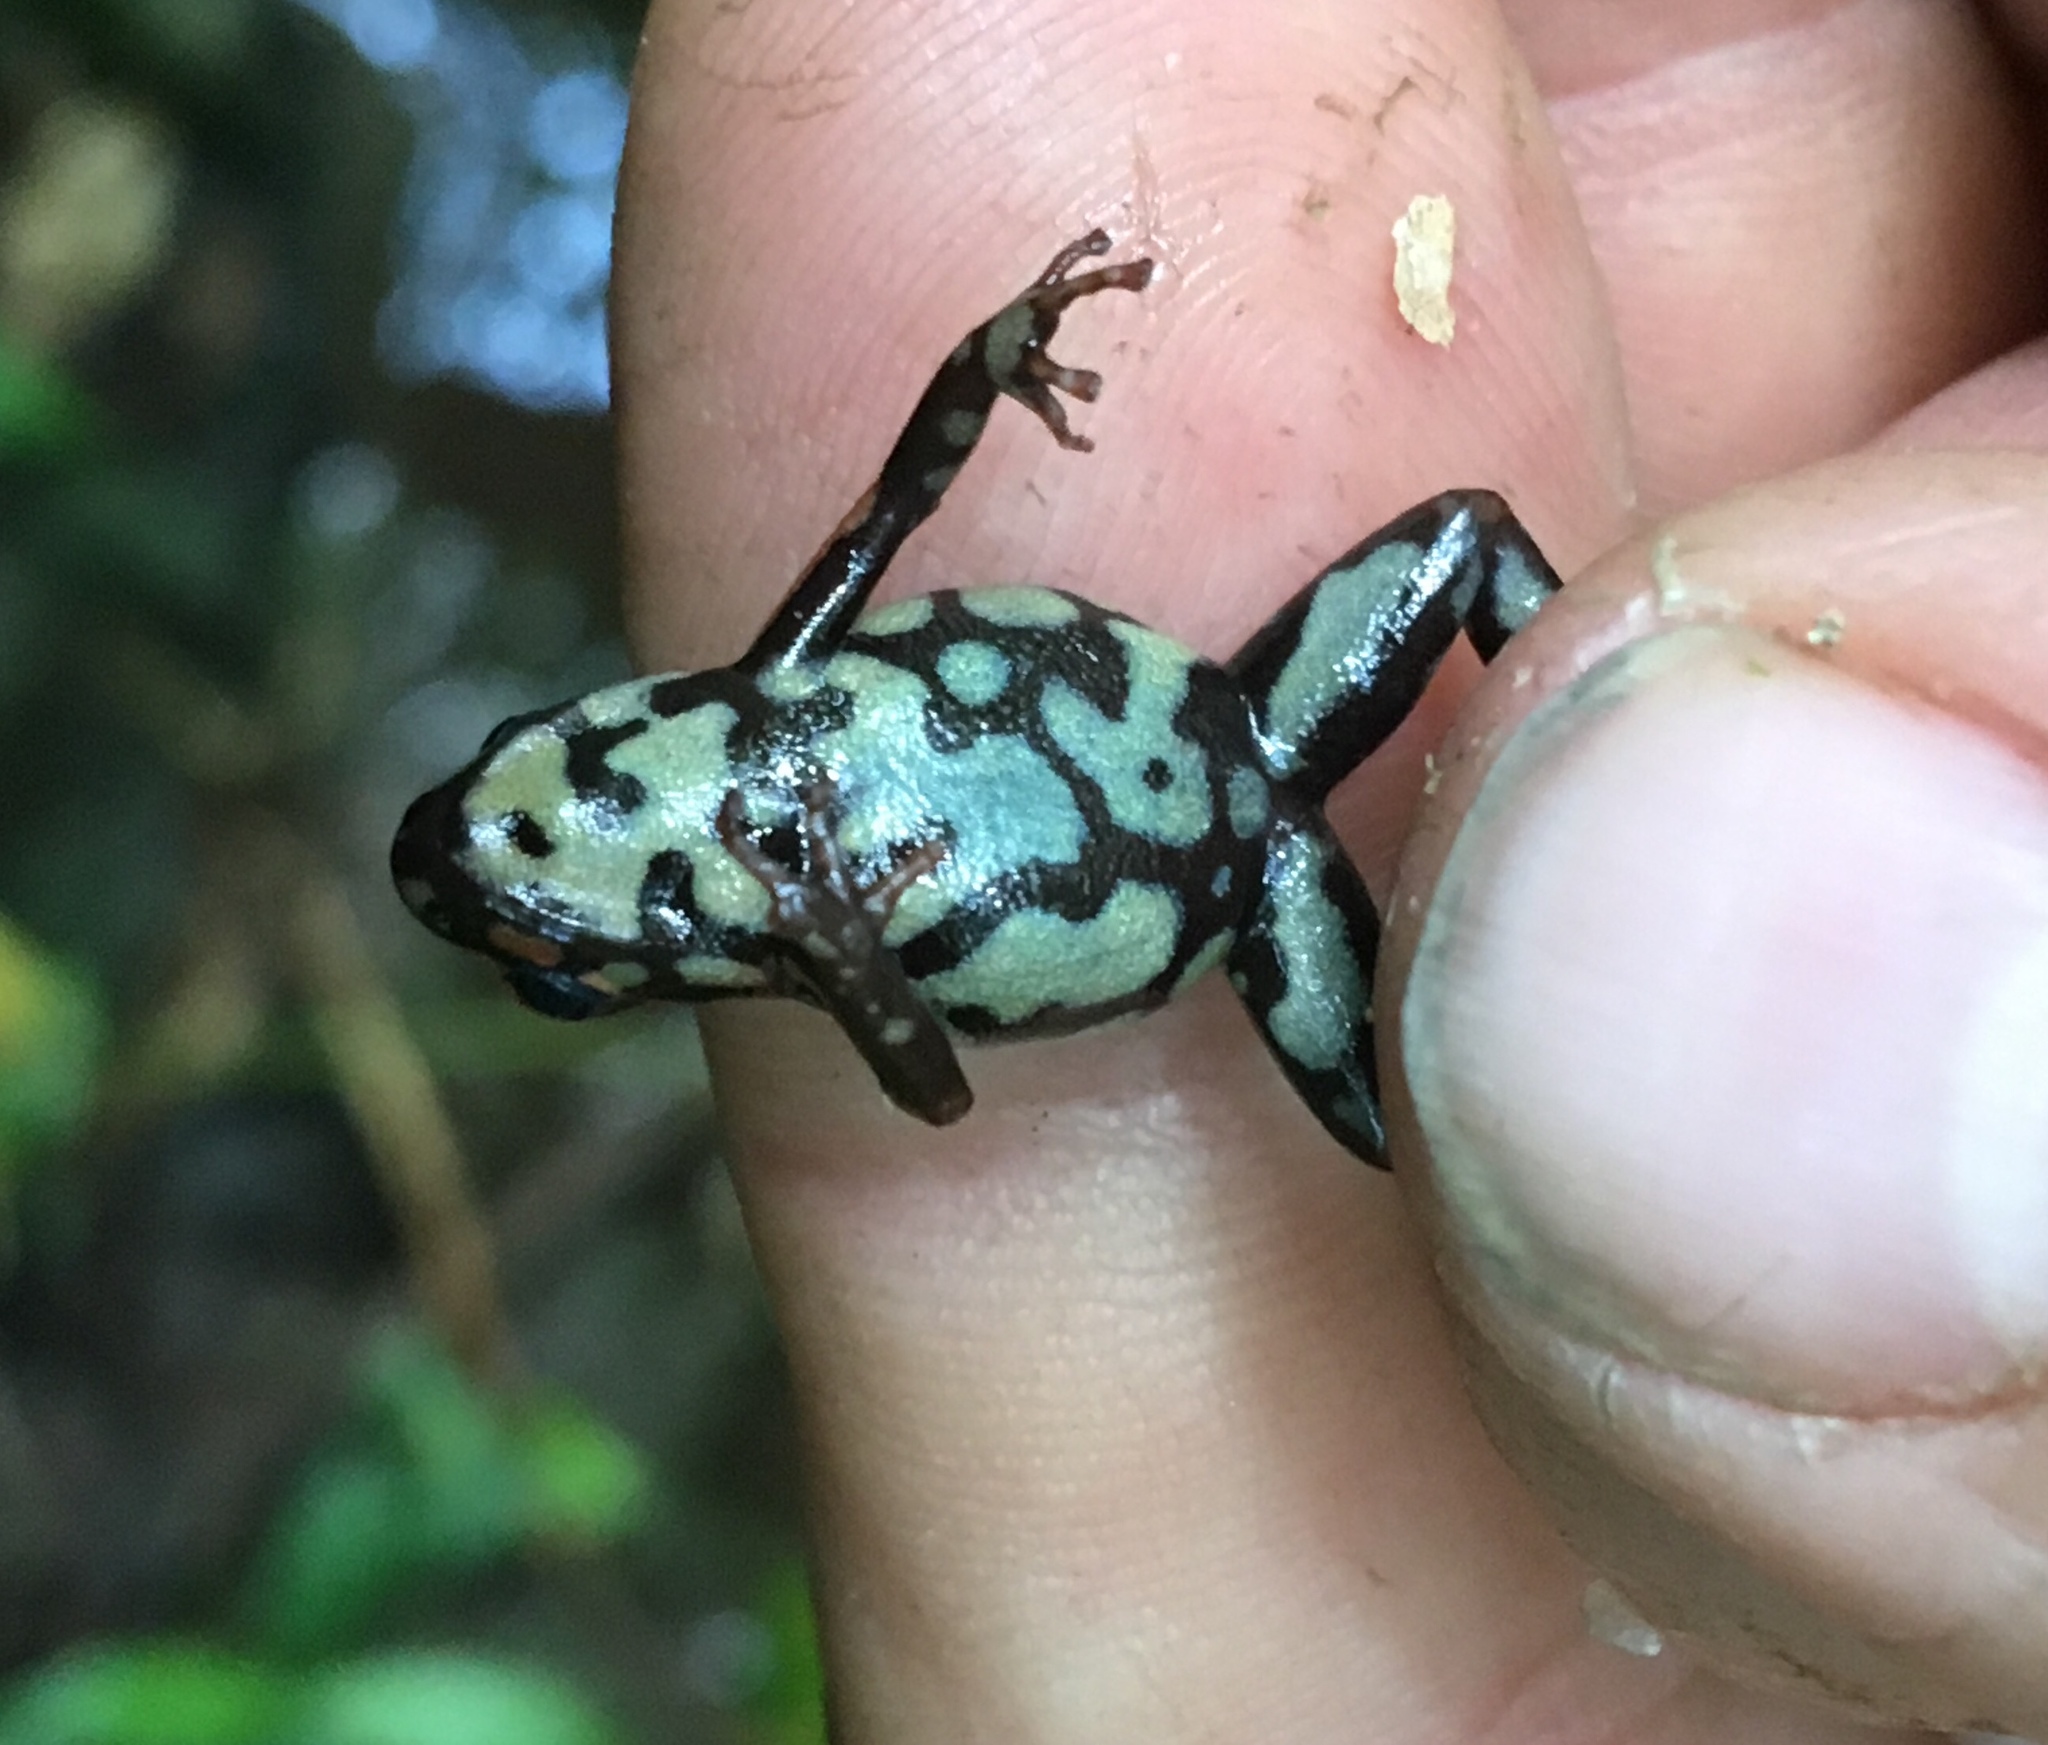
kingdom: Animalia
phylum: Chordata
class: Amphibia
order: Anura
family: Dendrobatidae
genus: Andinobates
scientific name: Andinobates bombetes
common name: Cauca poison frog
